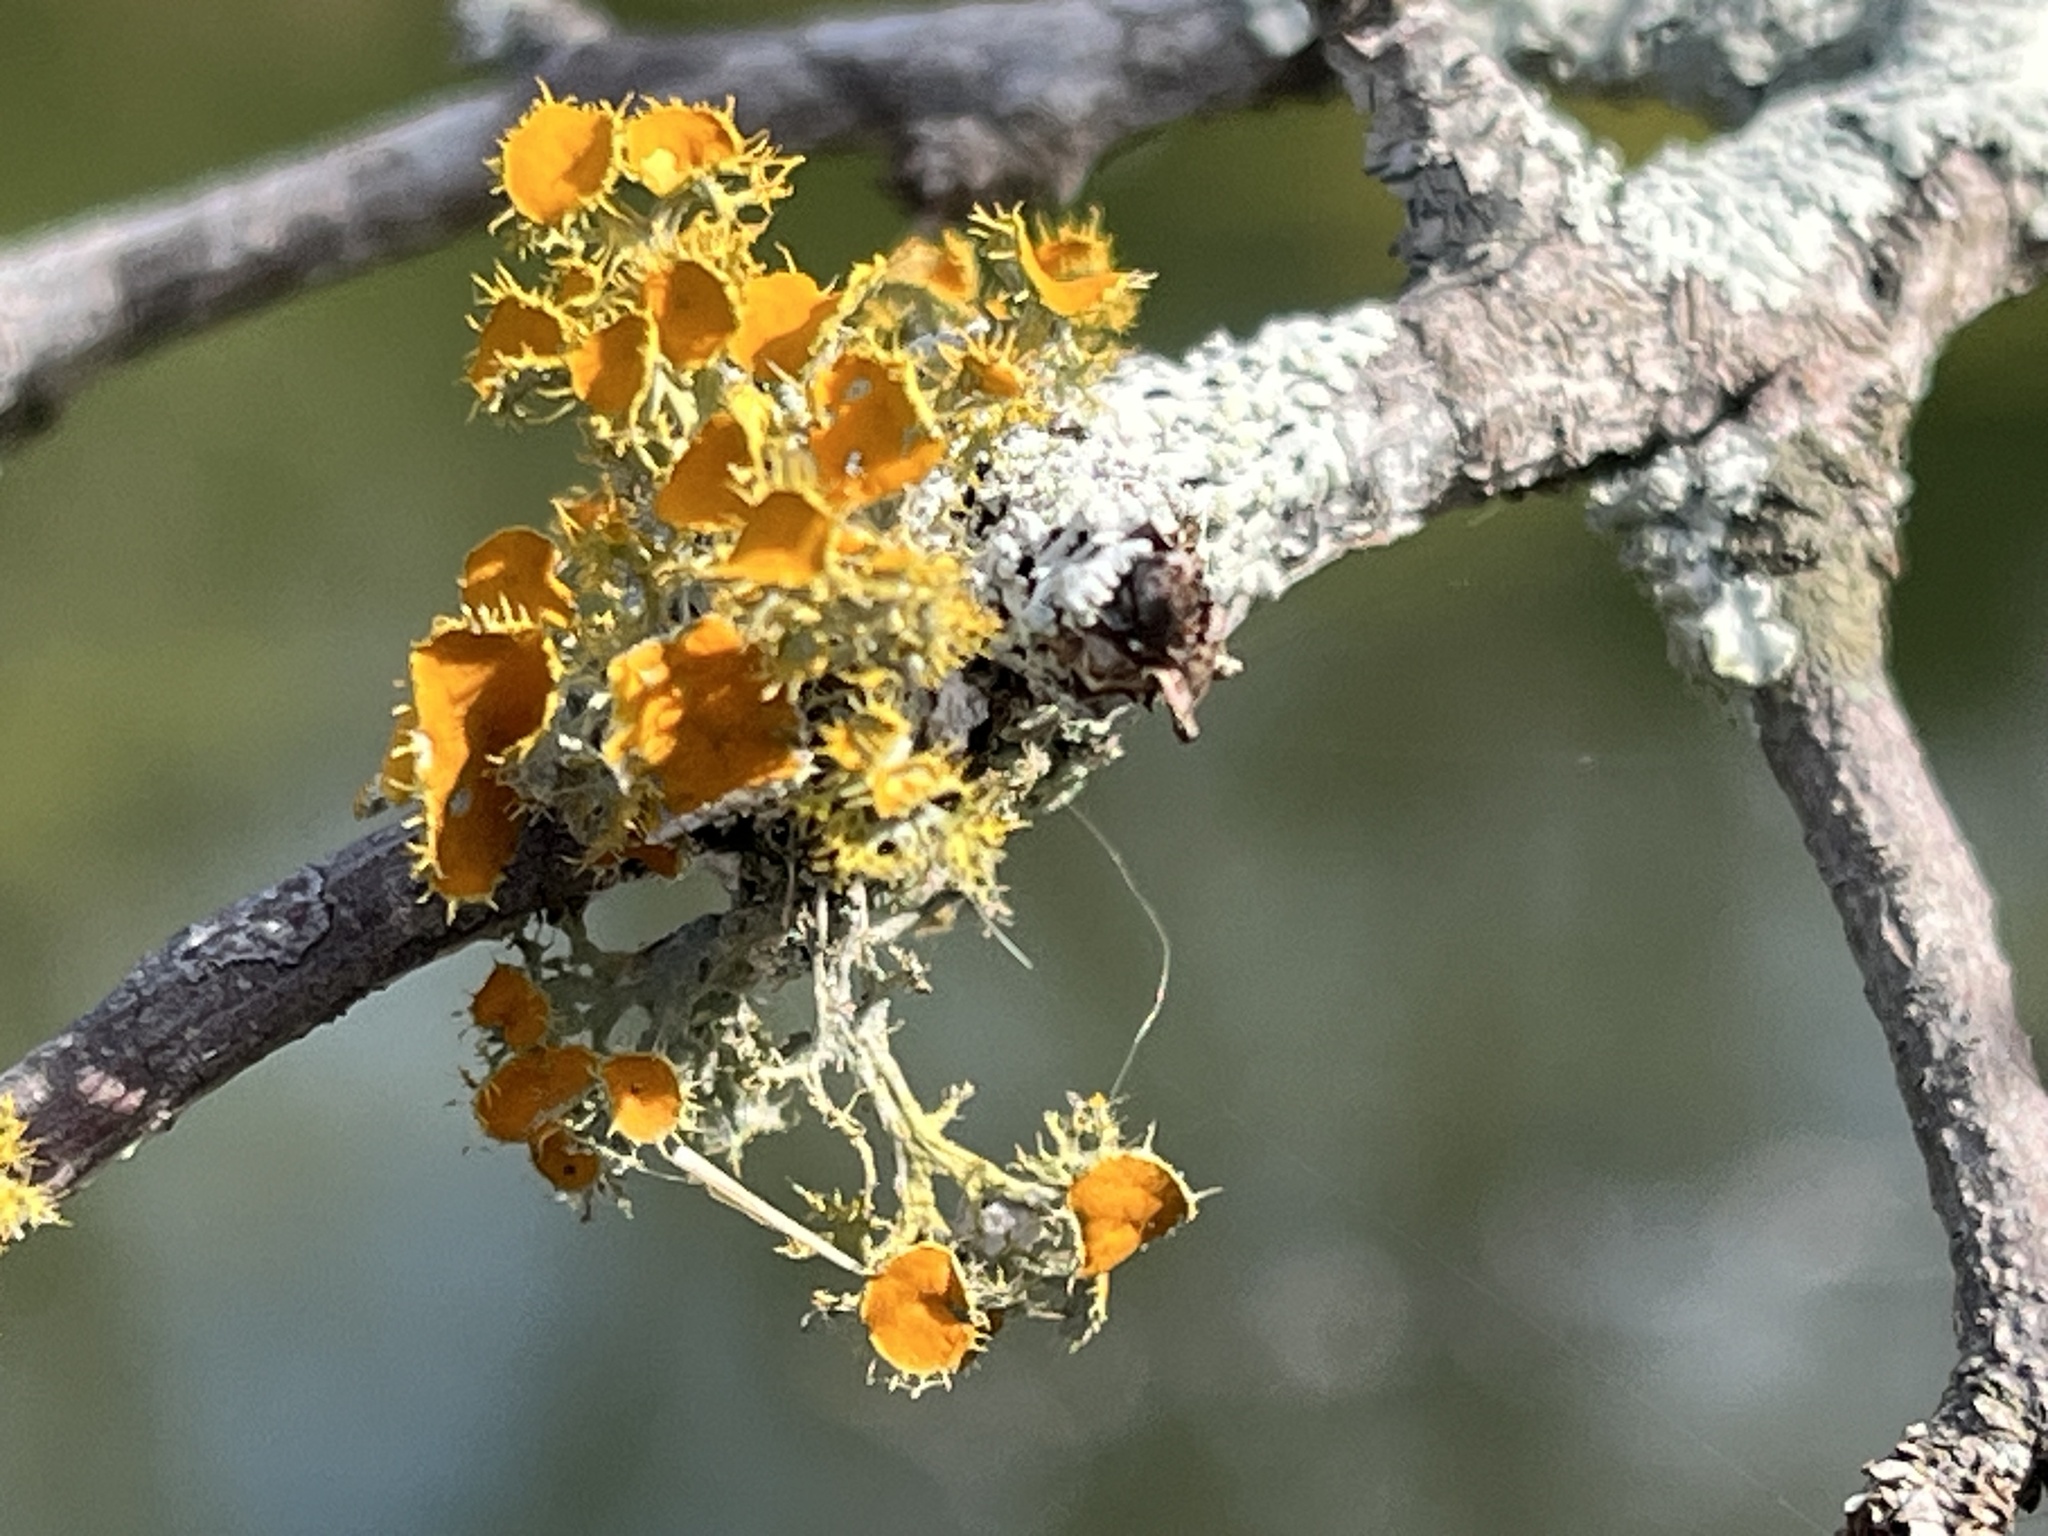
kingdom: Fungi
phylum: Ascomycota
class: Lecanoromycetes
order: Teloschistales
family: Teloschistaceae
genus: Niorma
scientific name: Niorma chrysophthalma
